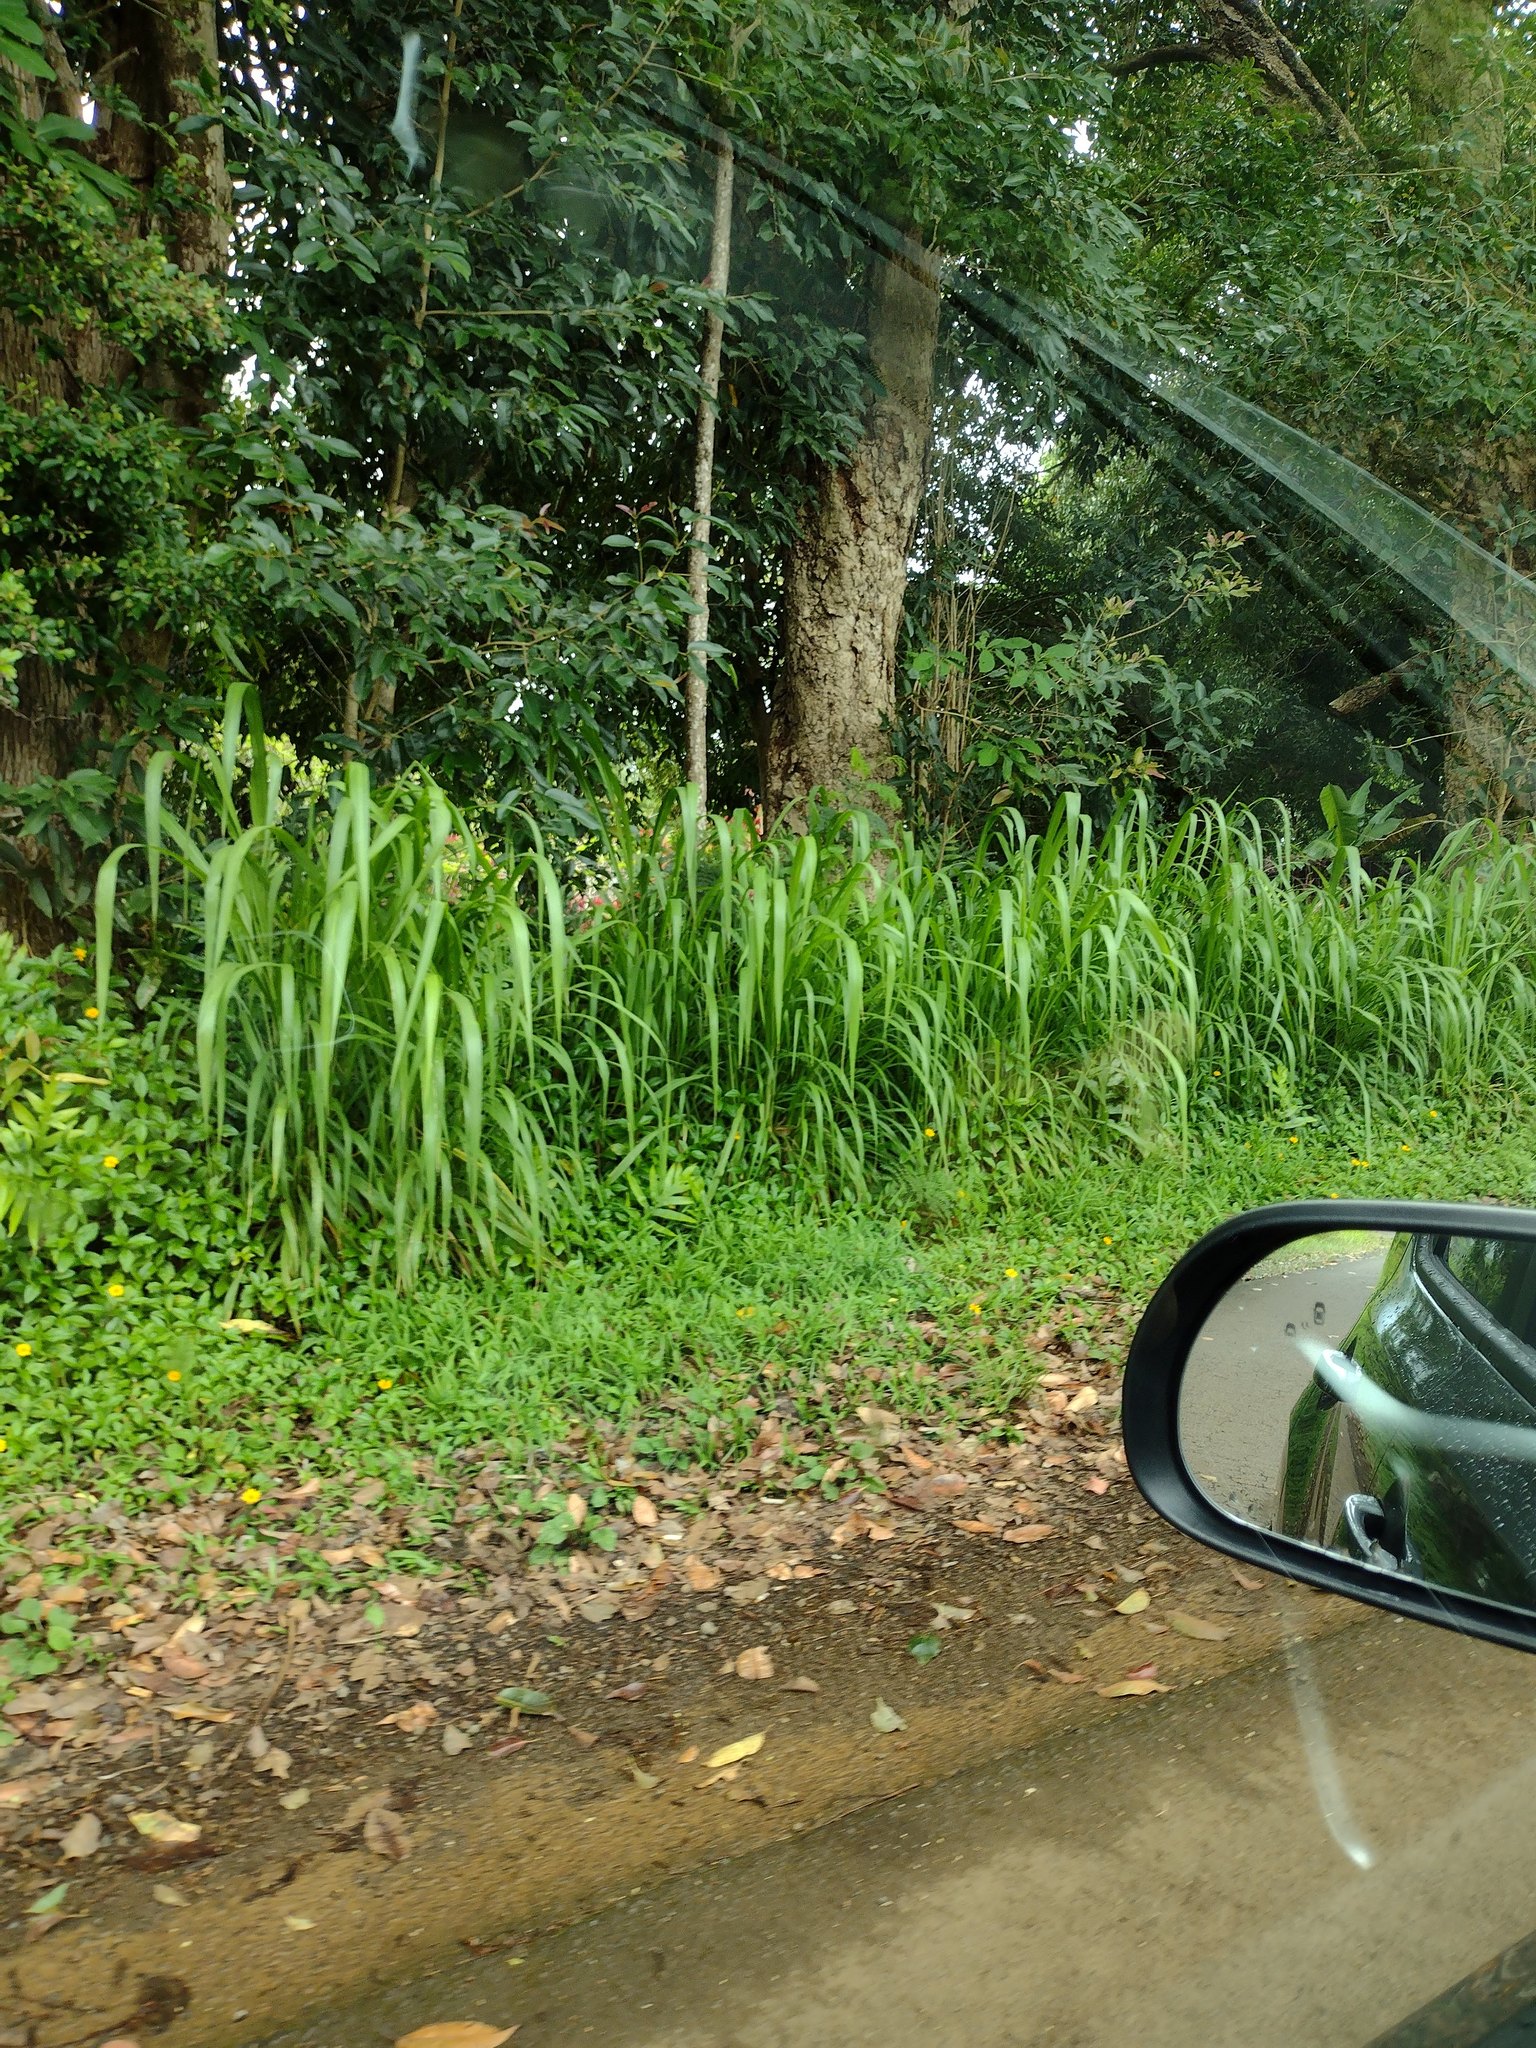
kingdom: Plantae
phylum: Tracheophyta
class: Liliopsida
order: Poales
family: Poaceae
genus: Megathyrsus
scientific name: Megathyrsus maximus
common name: Guineagrass
